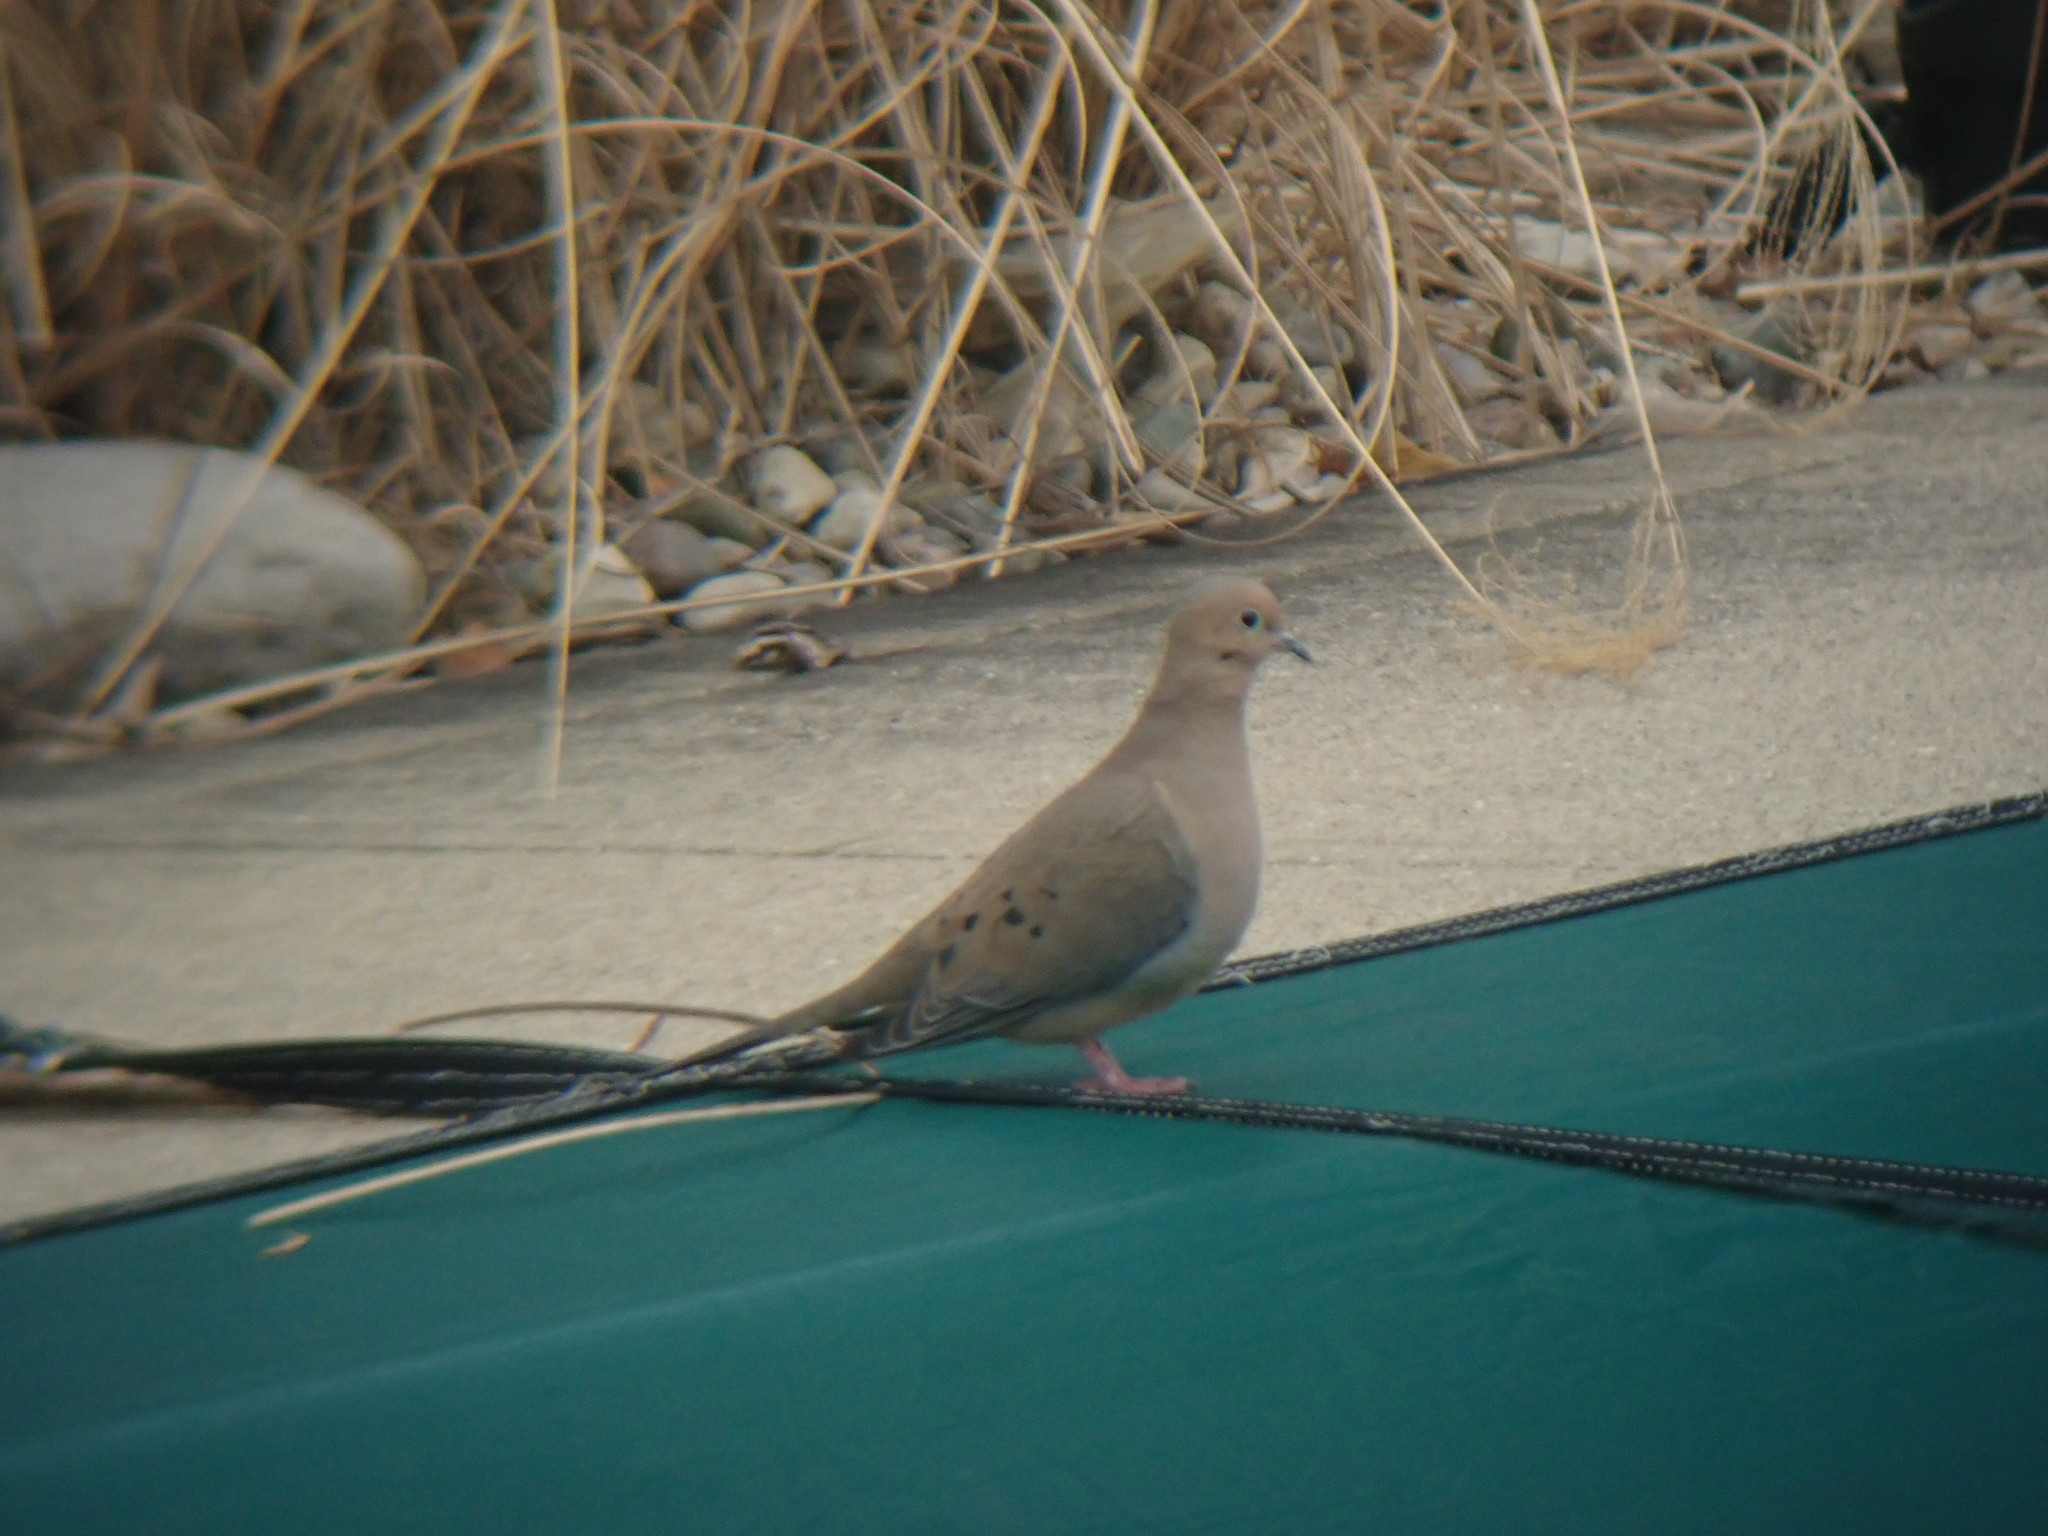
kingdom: Animalia
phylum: Chordata
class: Aves
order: Columbiformes
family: Columbidae
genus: Zenaida
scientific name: Zenaida macroura
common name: Mourning dove
